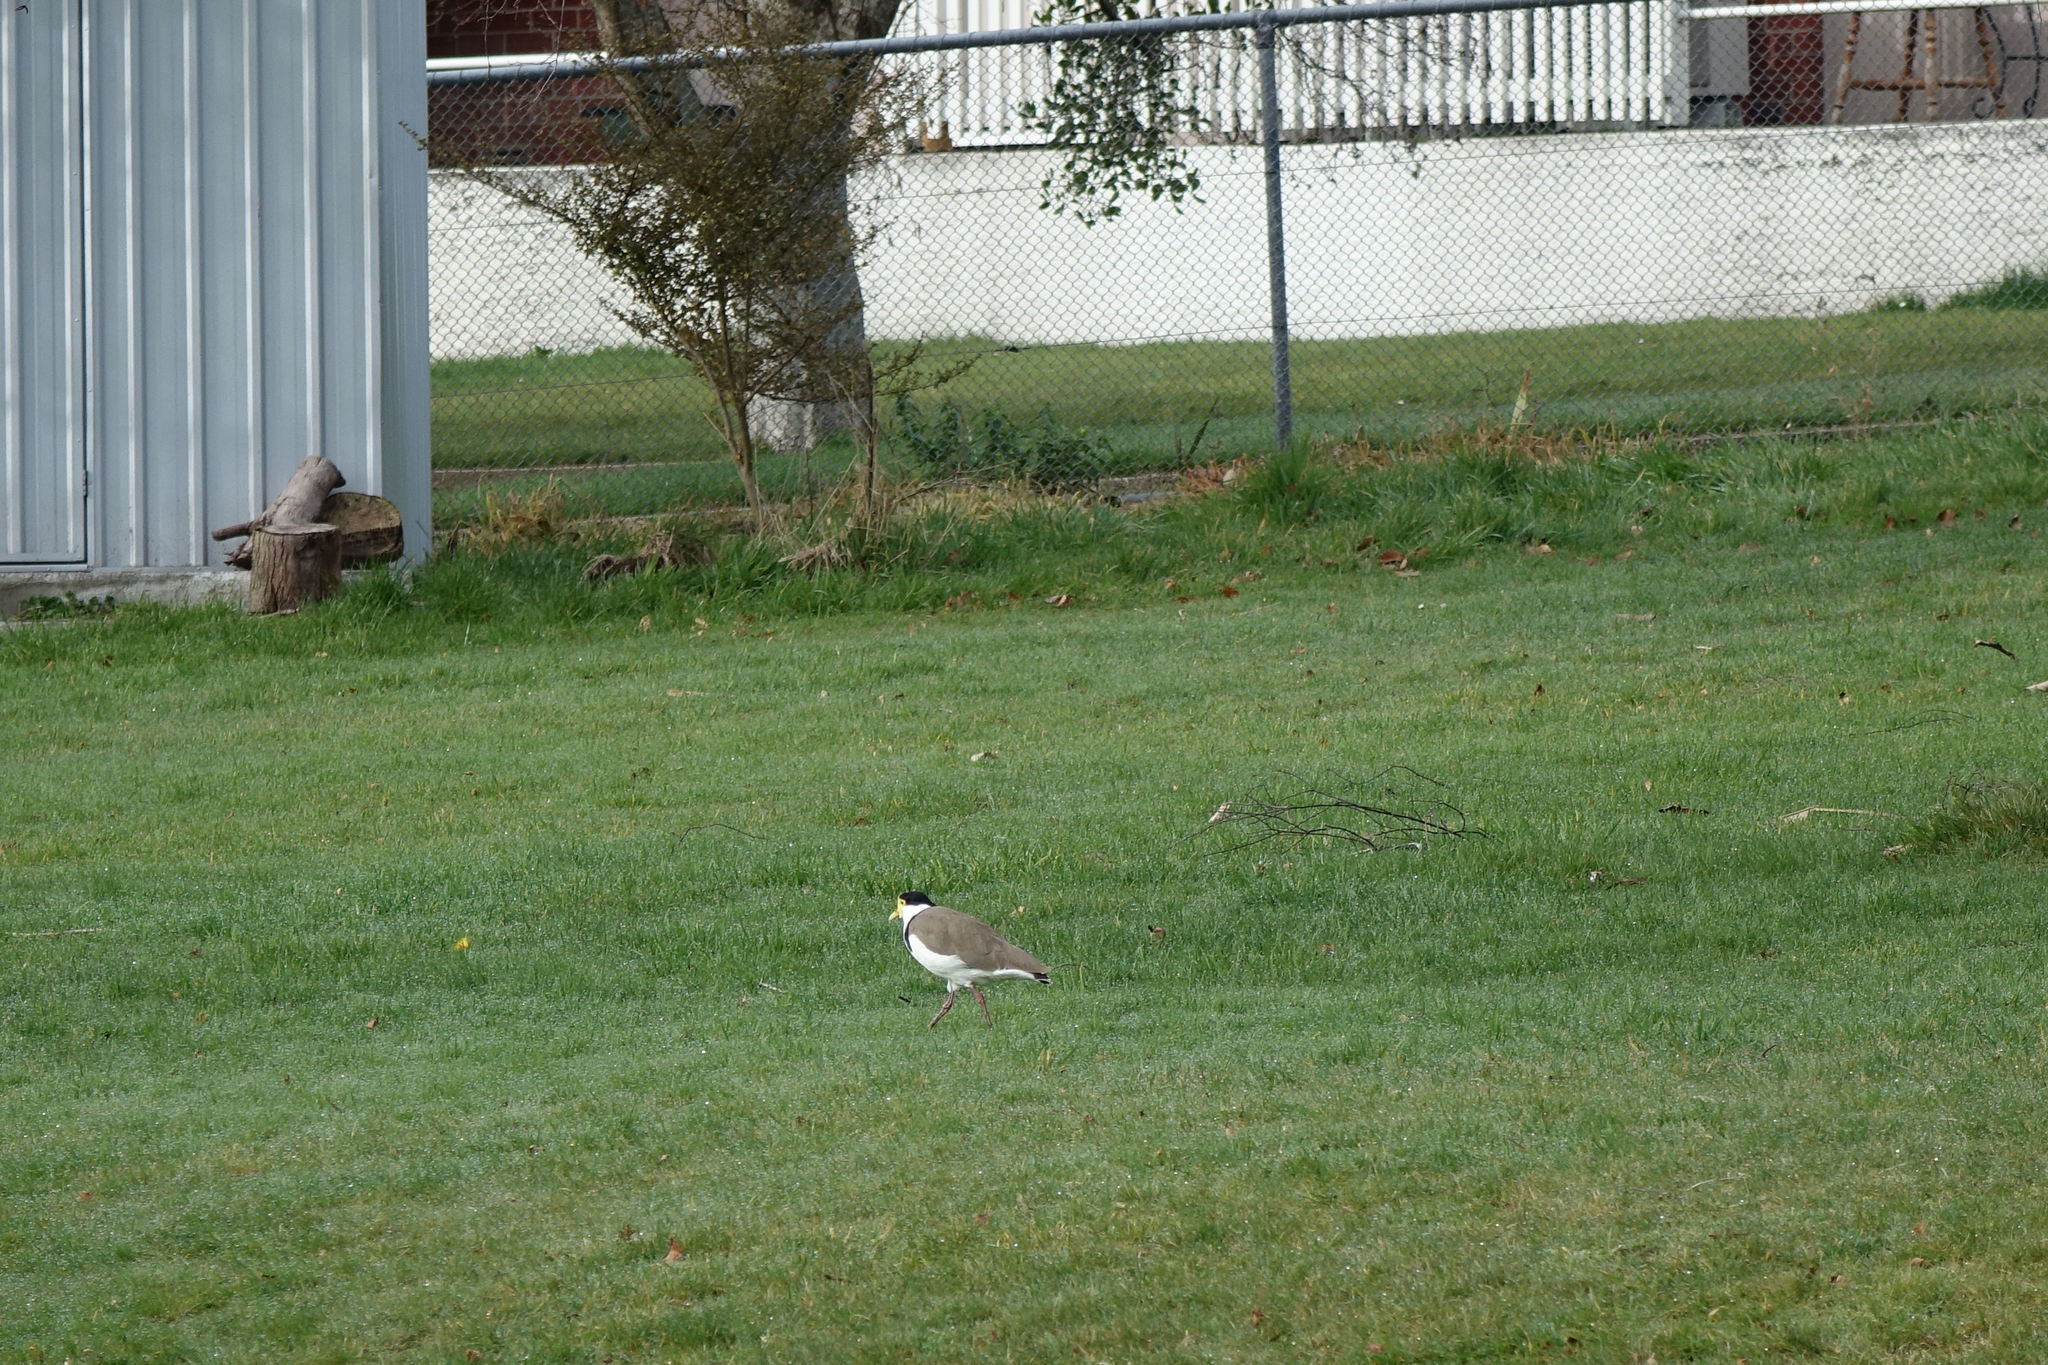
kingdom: Animalia
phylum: Chordata
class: Aves
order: Charadriiformes
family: Charadriidae
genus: Vanellus
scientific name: Vanellus miles
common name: Masked lapwing
